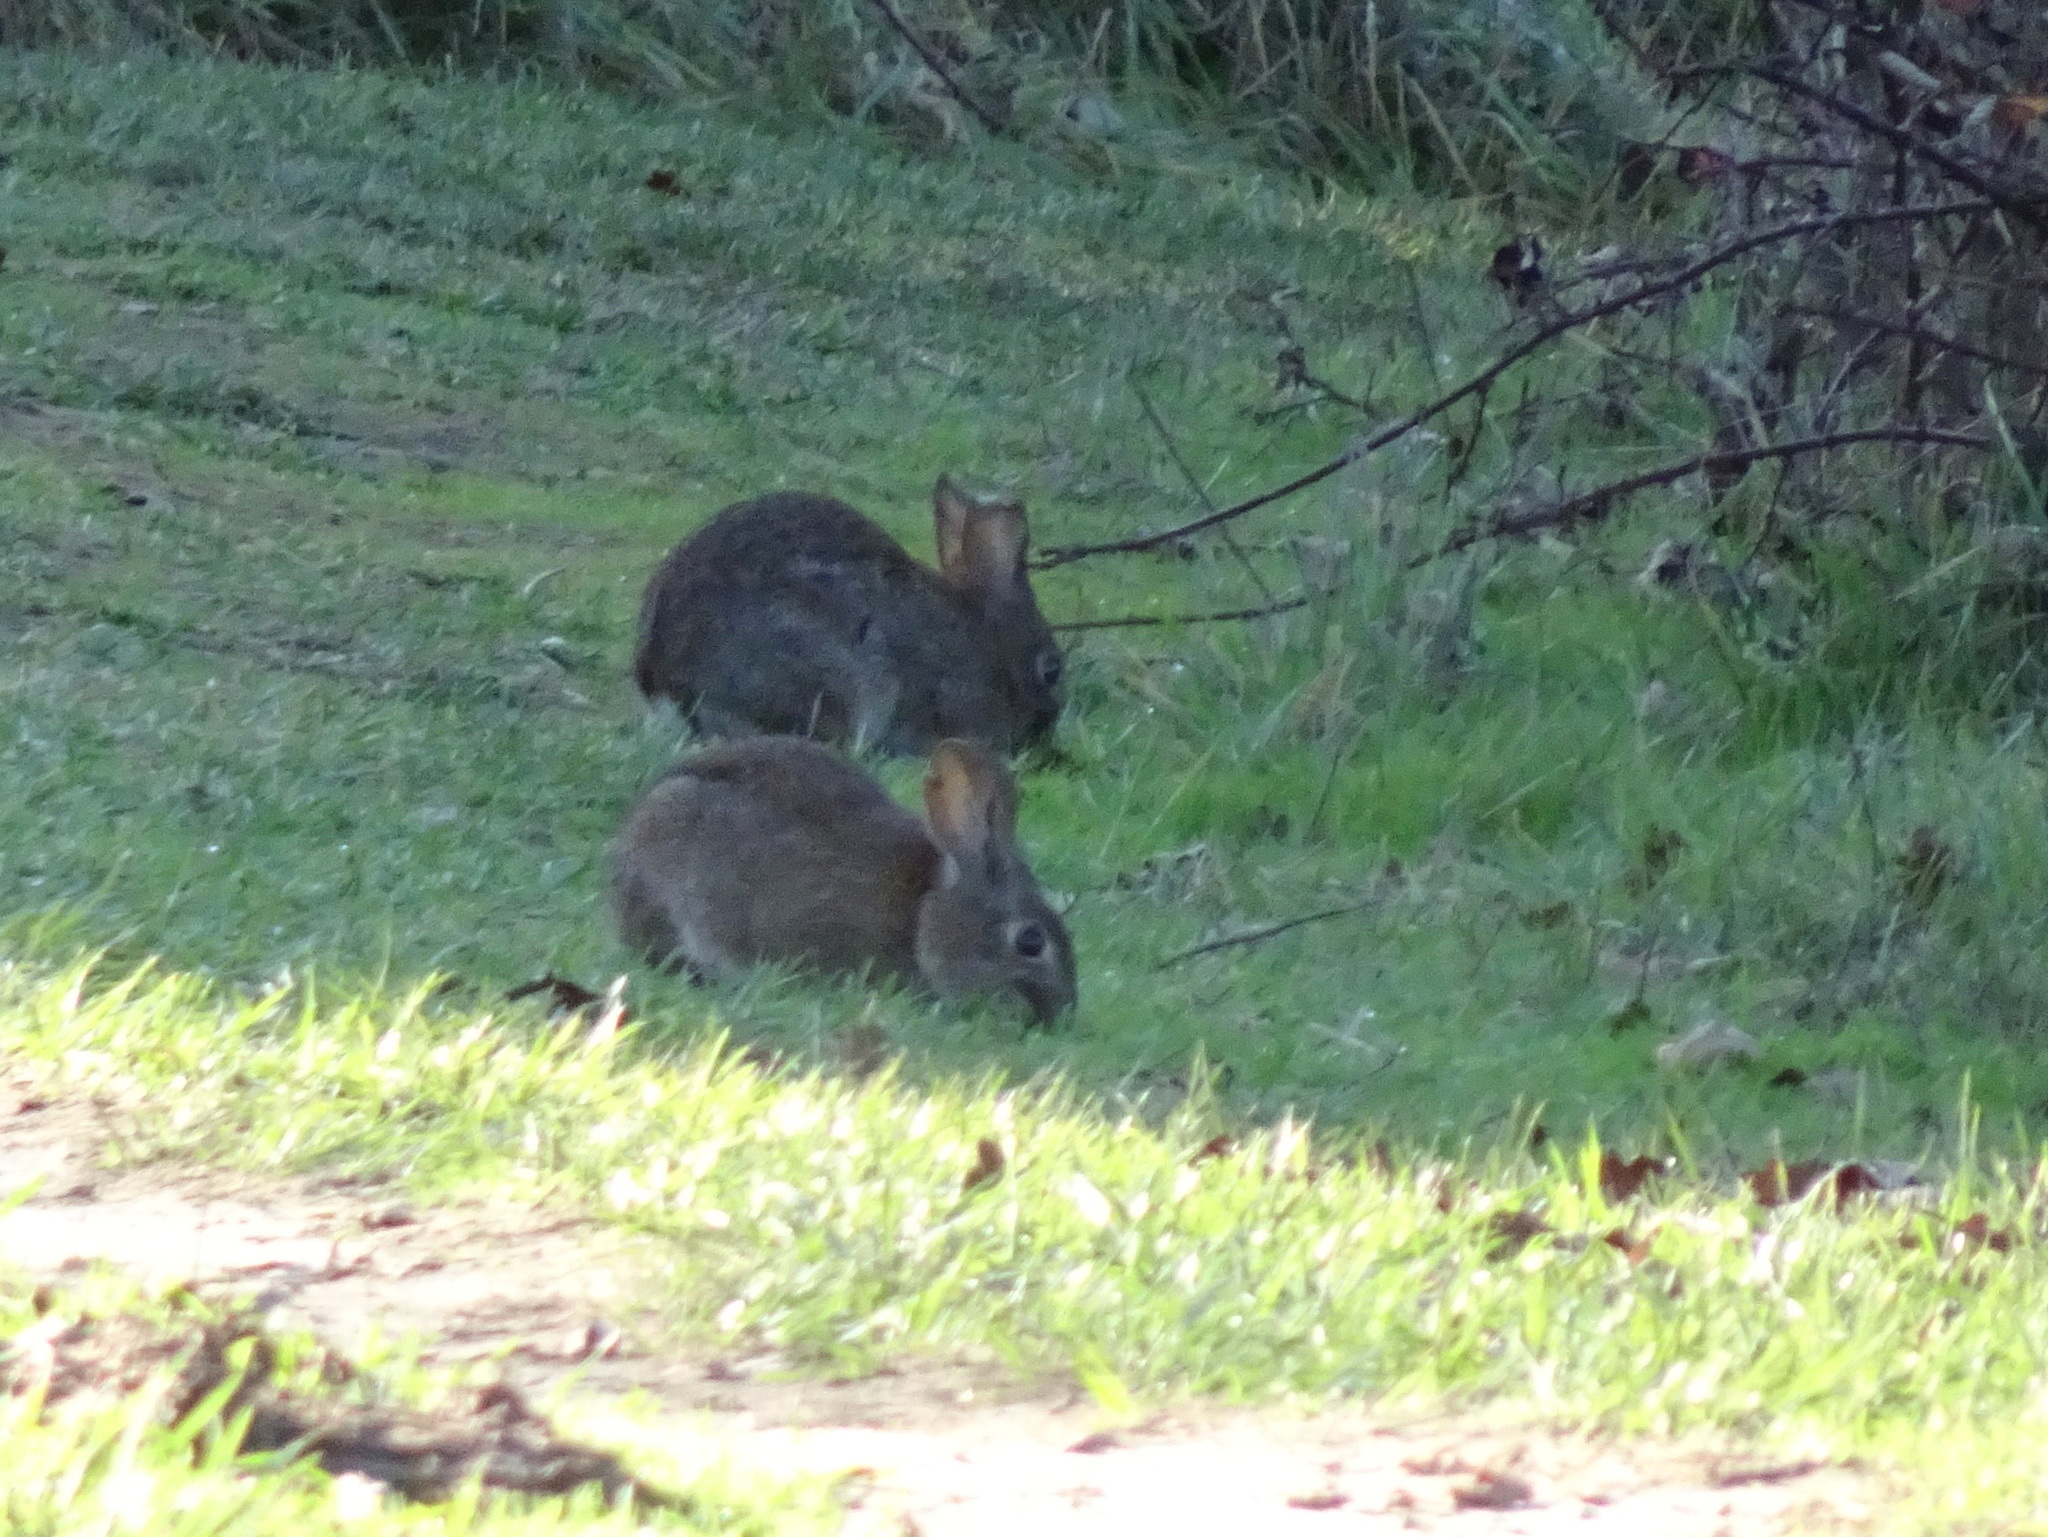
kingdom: Animalia
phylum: Chordata
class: Mammalia
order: Lagomorpha
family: Leporidae
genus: Sylvilagus
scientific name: Sylvilagus bachmani
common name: Brush rabbit
